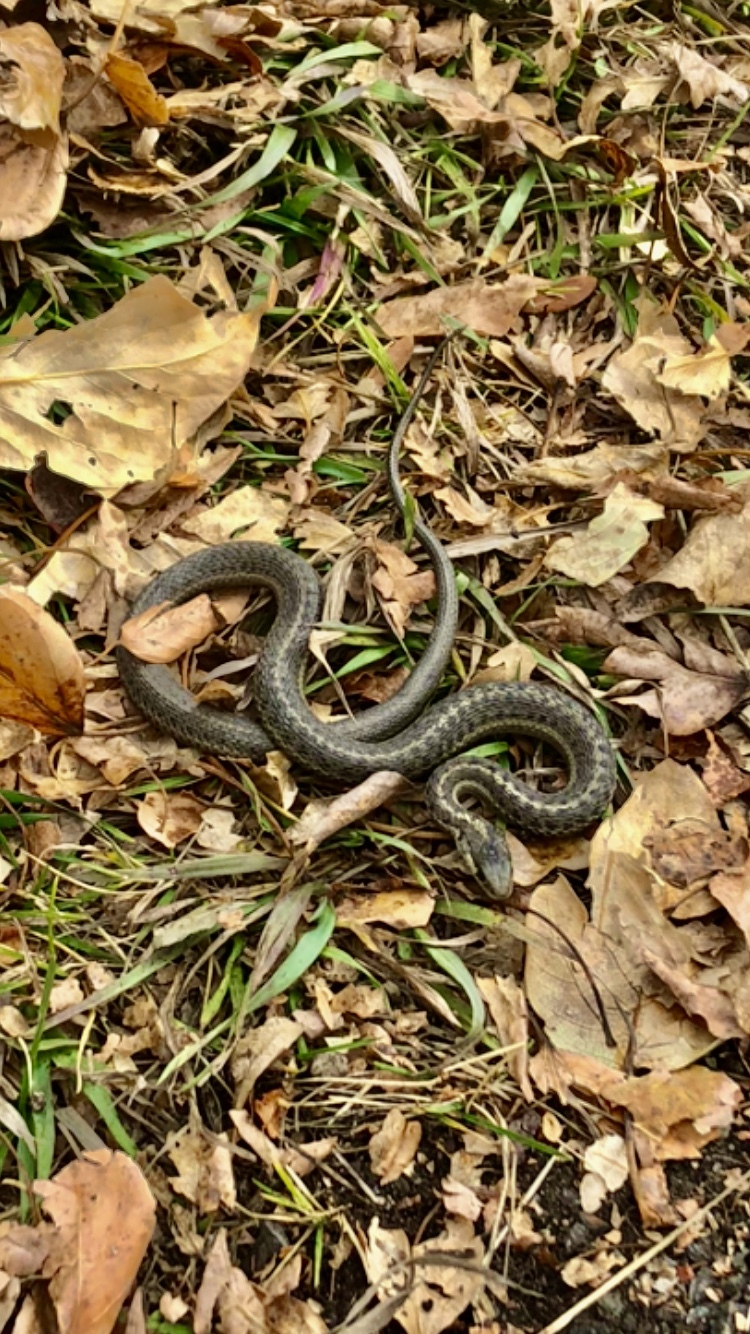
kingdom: Animalia
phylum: Chordata
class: Squamata
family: Colubridae
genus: Thamnophis
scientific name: Thamnophis elegans
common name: Western terrestrial garter snake
